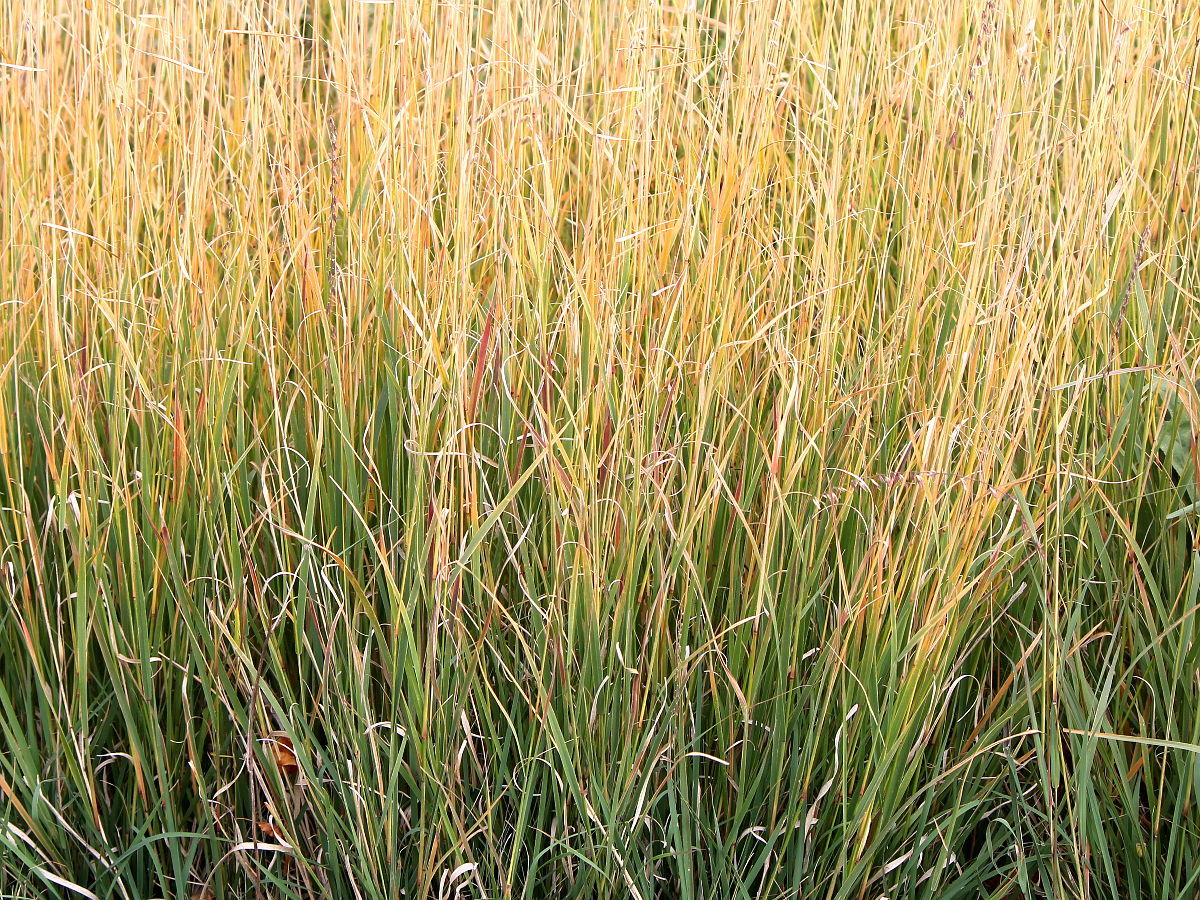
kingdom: Plantae
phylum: Tracheophyta
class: Liliopsida
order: Poales
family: Poaceae
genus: Bouteloua
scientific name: Bouteloua curtipendula
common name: Side-oats grama
